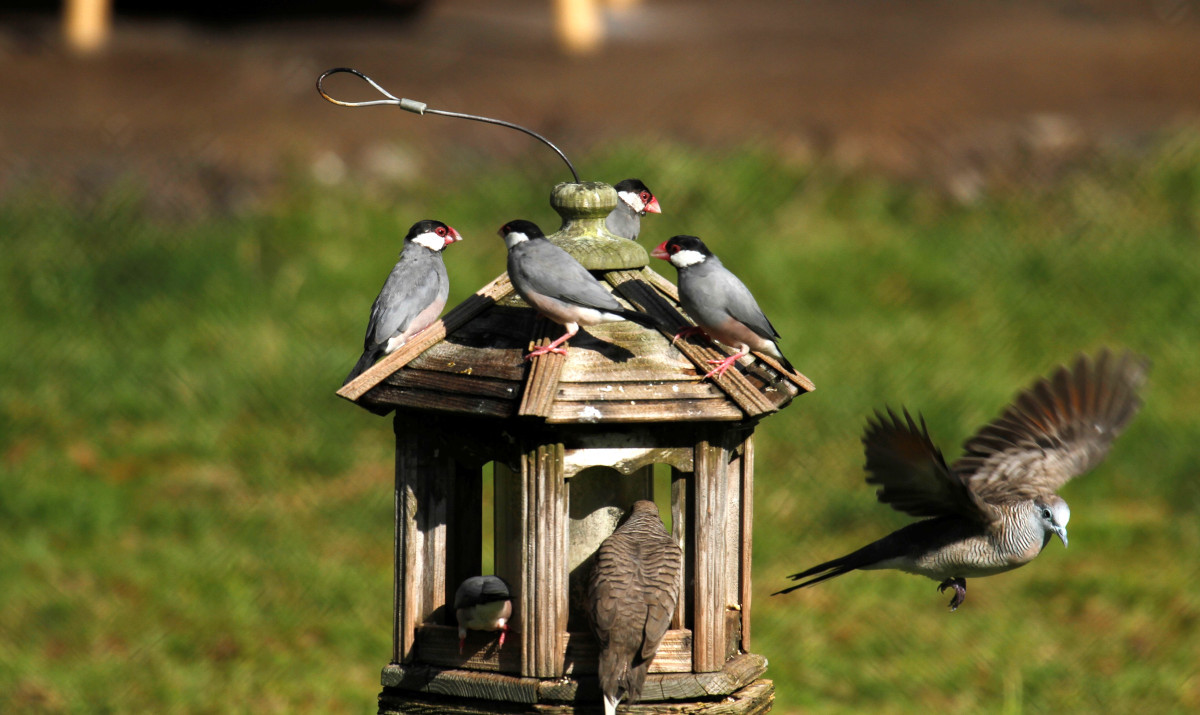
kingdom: Animalia
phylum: Chordata
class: Aves
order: Passeriformes
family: Estrildidae
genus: Lonchura
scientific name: Lonchura oryzivora
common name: Java sparrow
